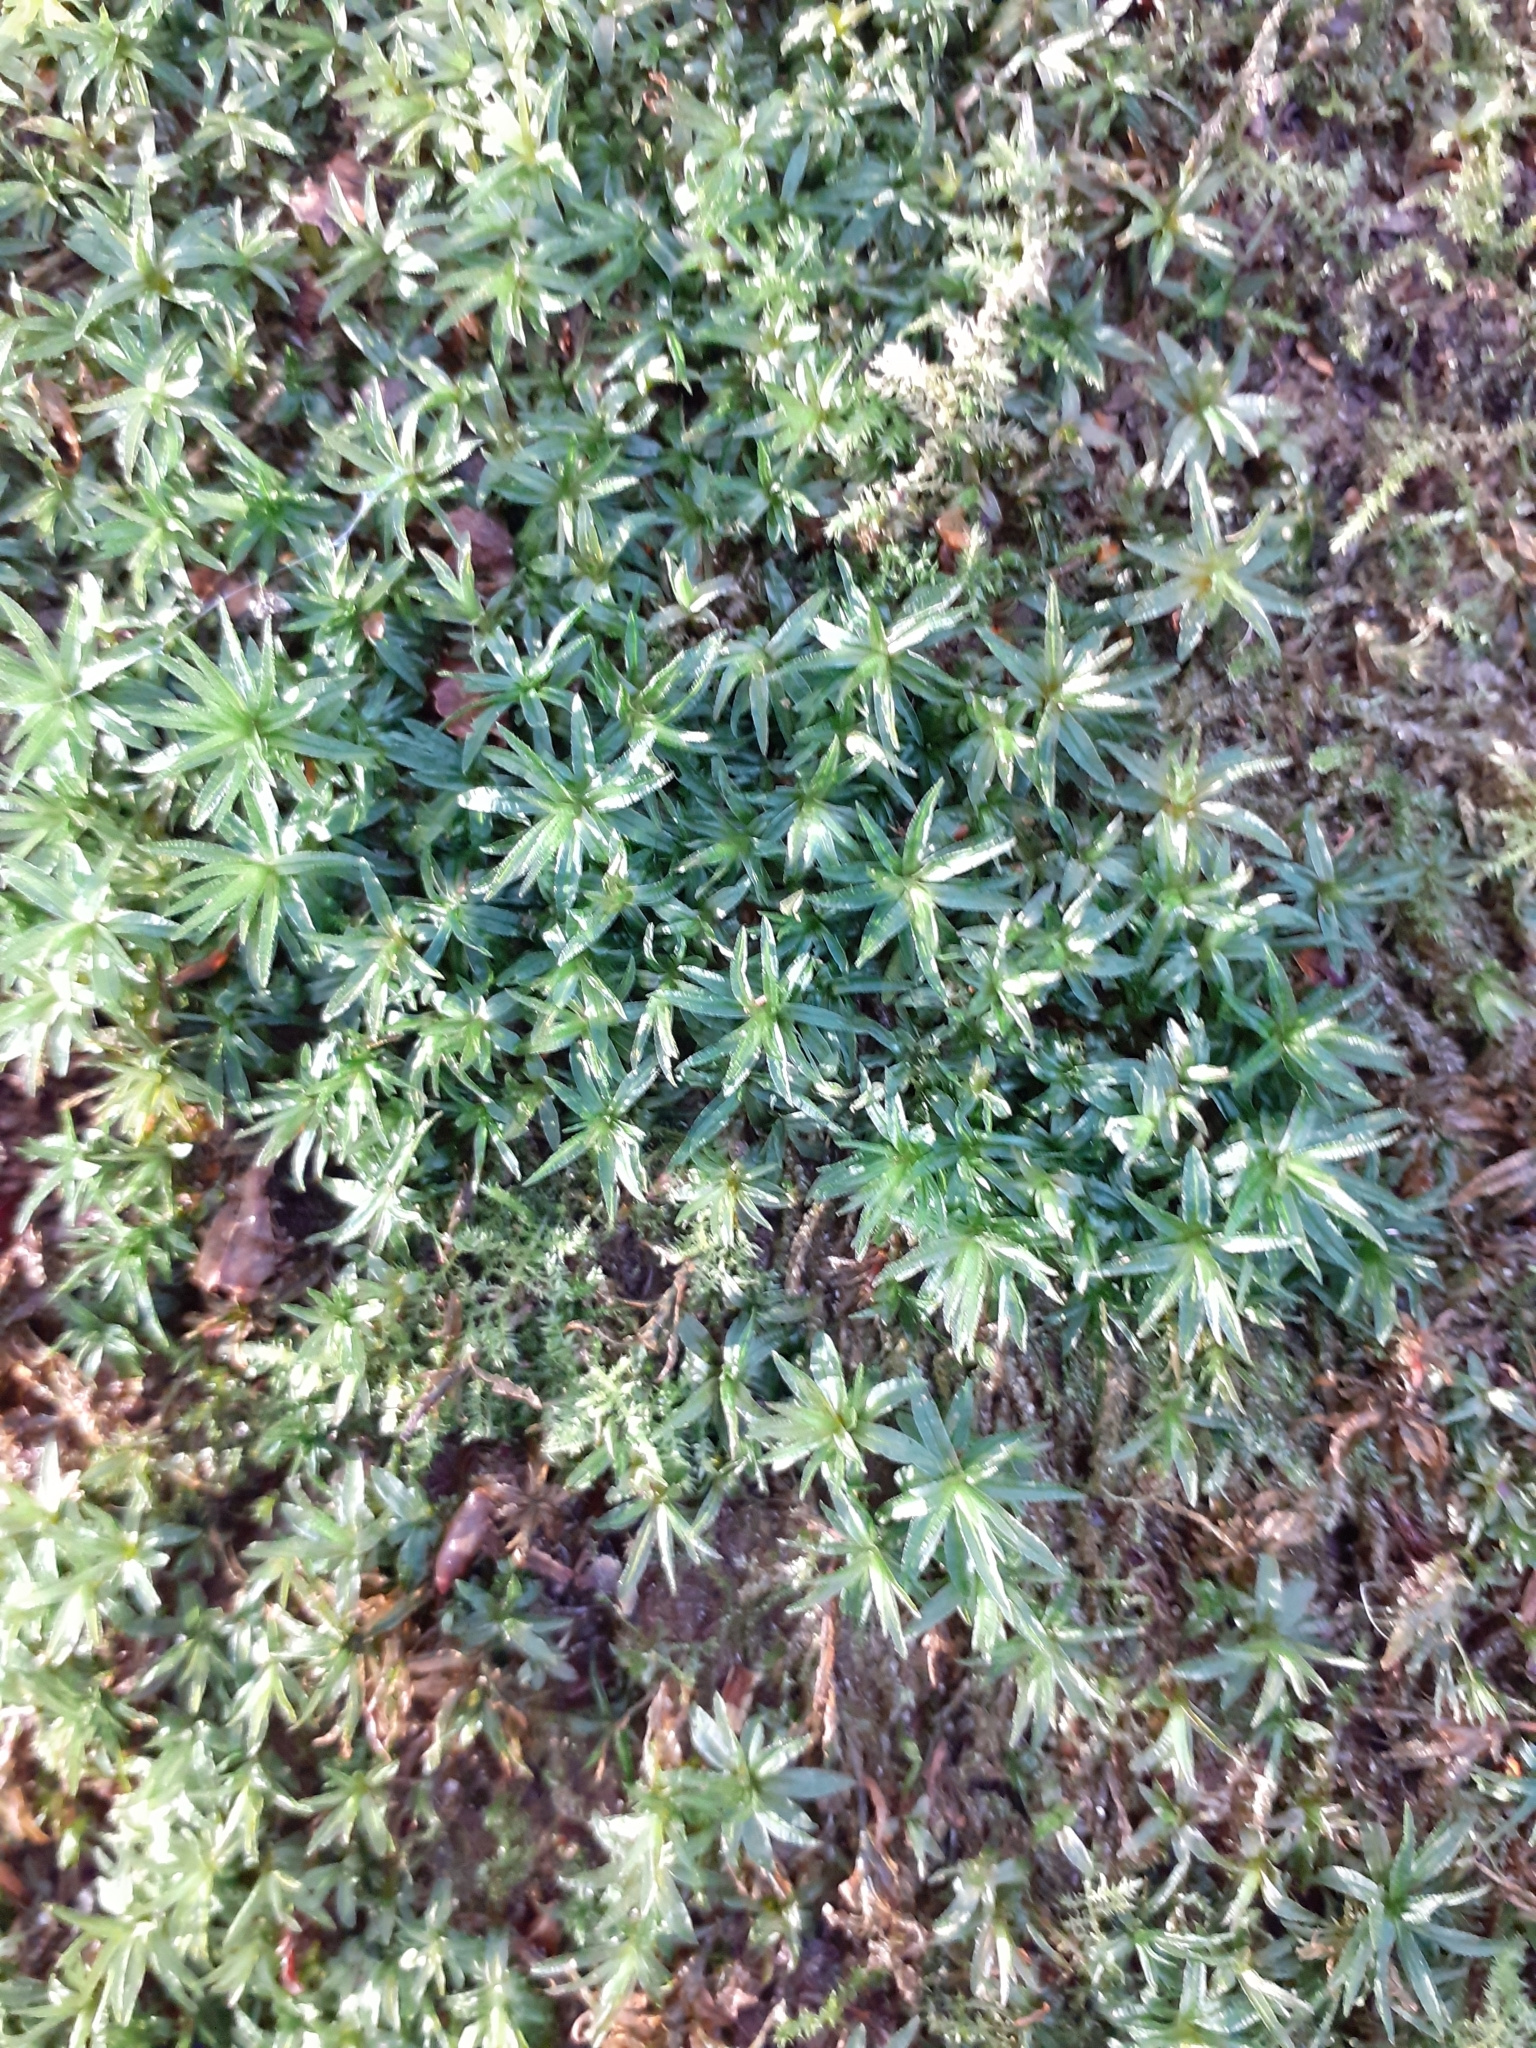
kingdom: Plantae
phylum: Bryophyta
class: Polytrichopsida
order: Polytrichales
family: Polytrichaceae
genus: Atrichum
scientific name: Atrichum undulatum
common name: Common smoothcap
